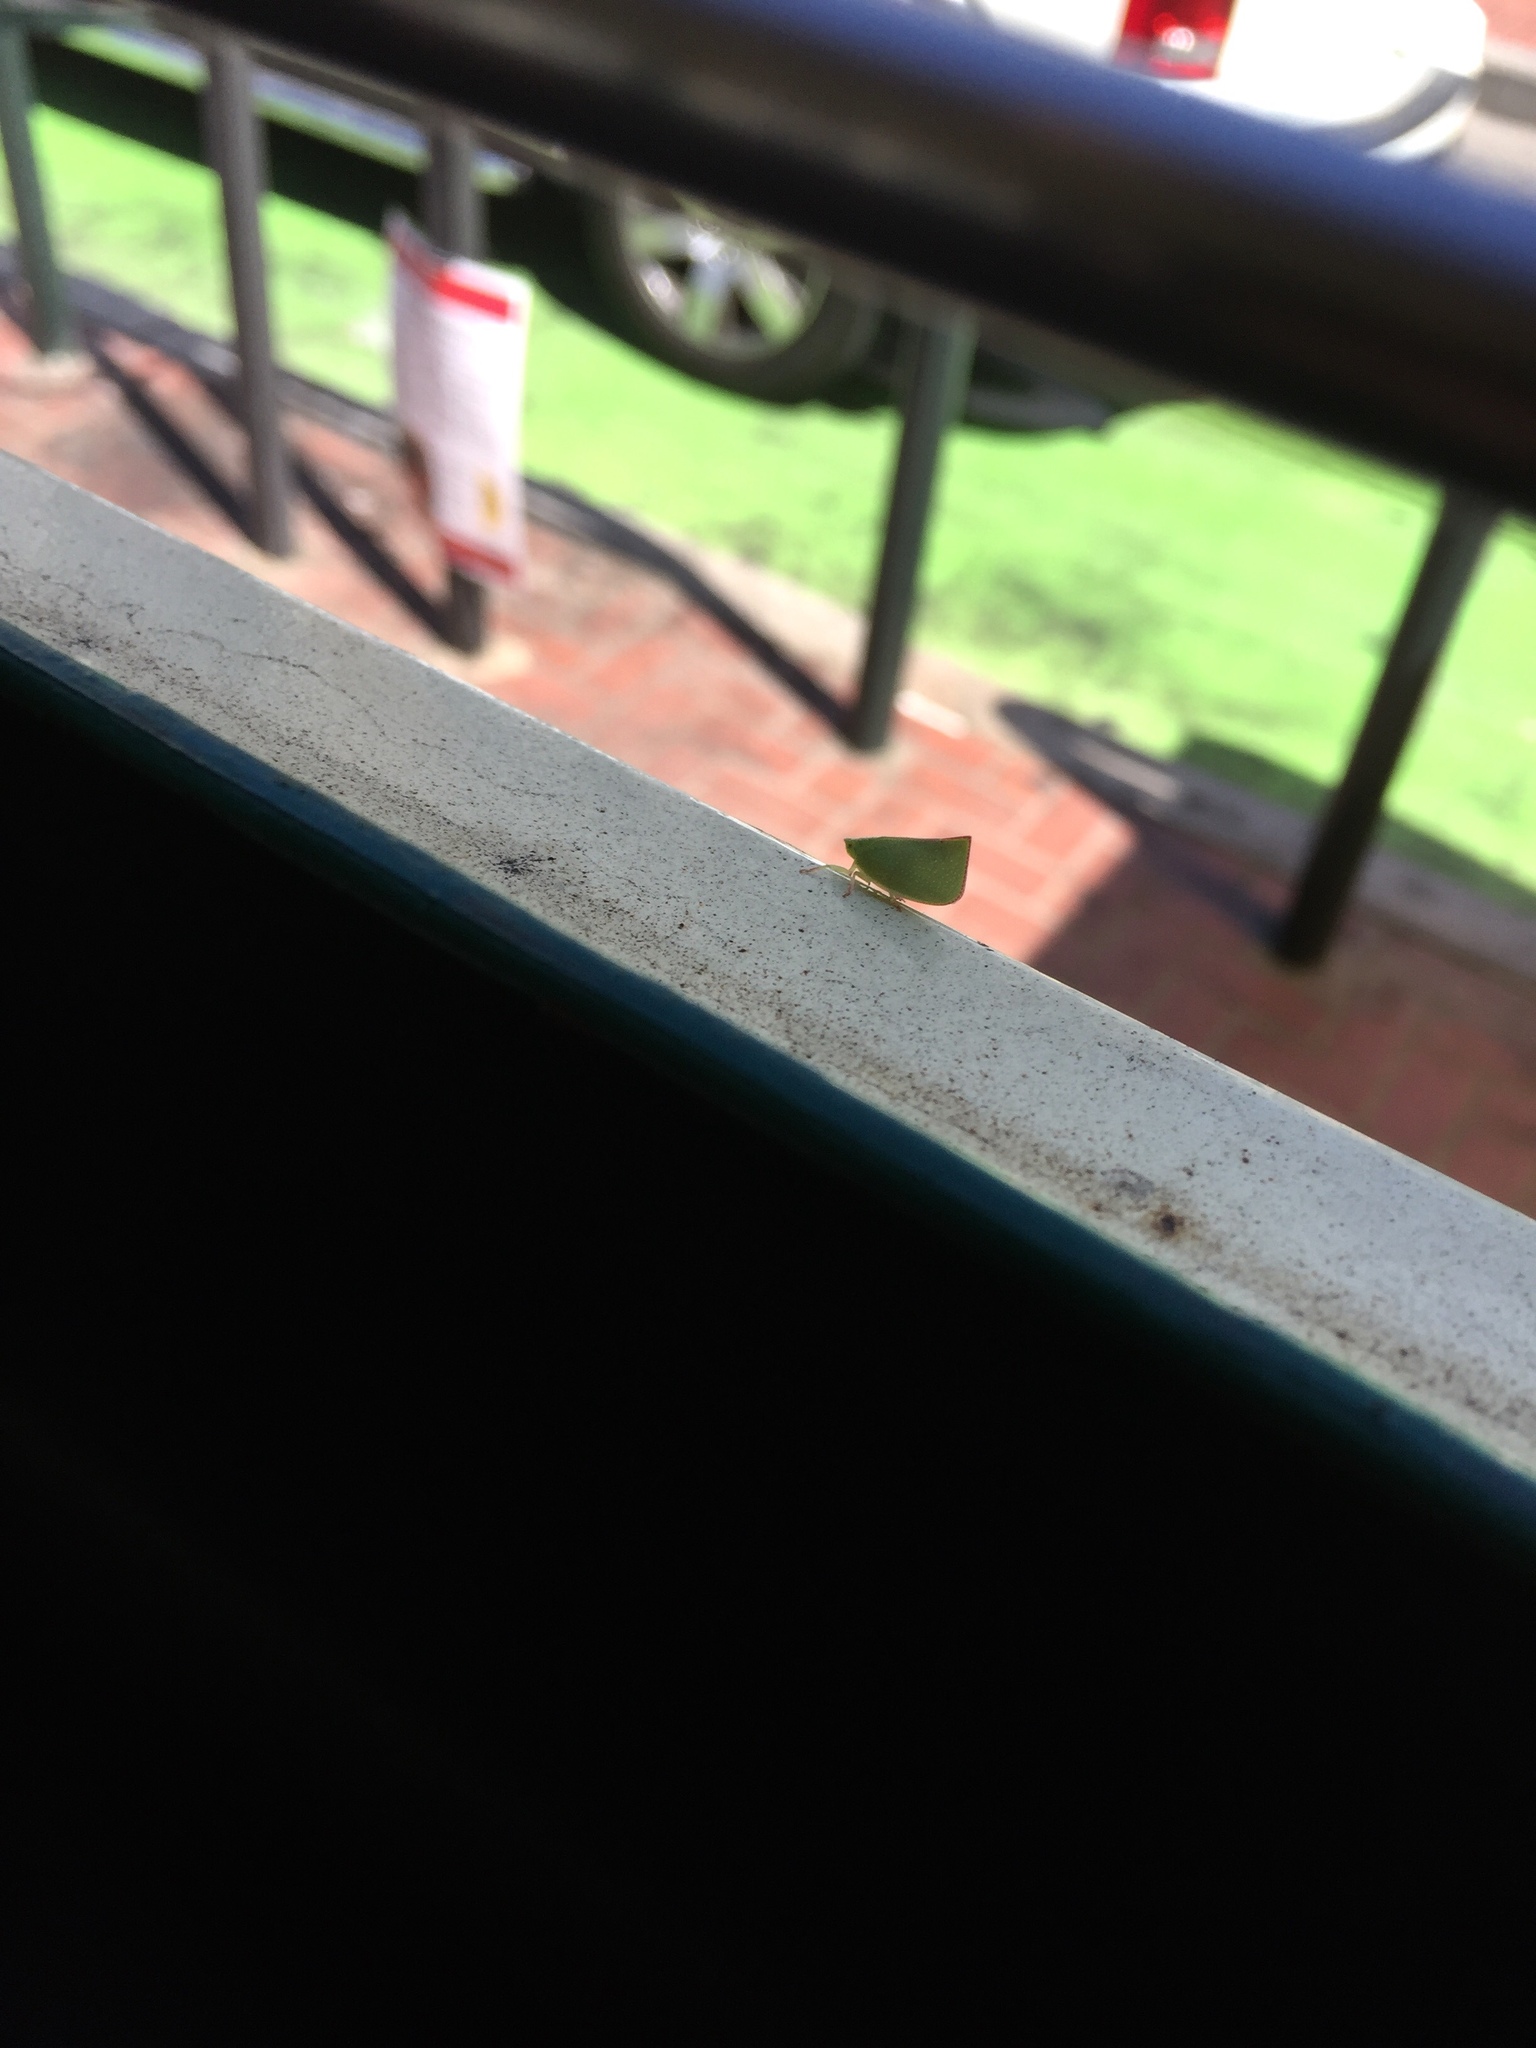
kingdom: Animalia
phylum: Arthropoda
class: Insecta
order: Hemiptera
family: Flatidae
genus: Siphanta
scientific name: Siphanta acuta
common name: Torpedo bug
